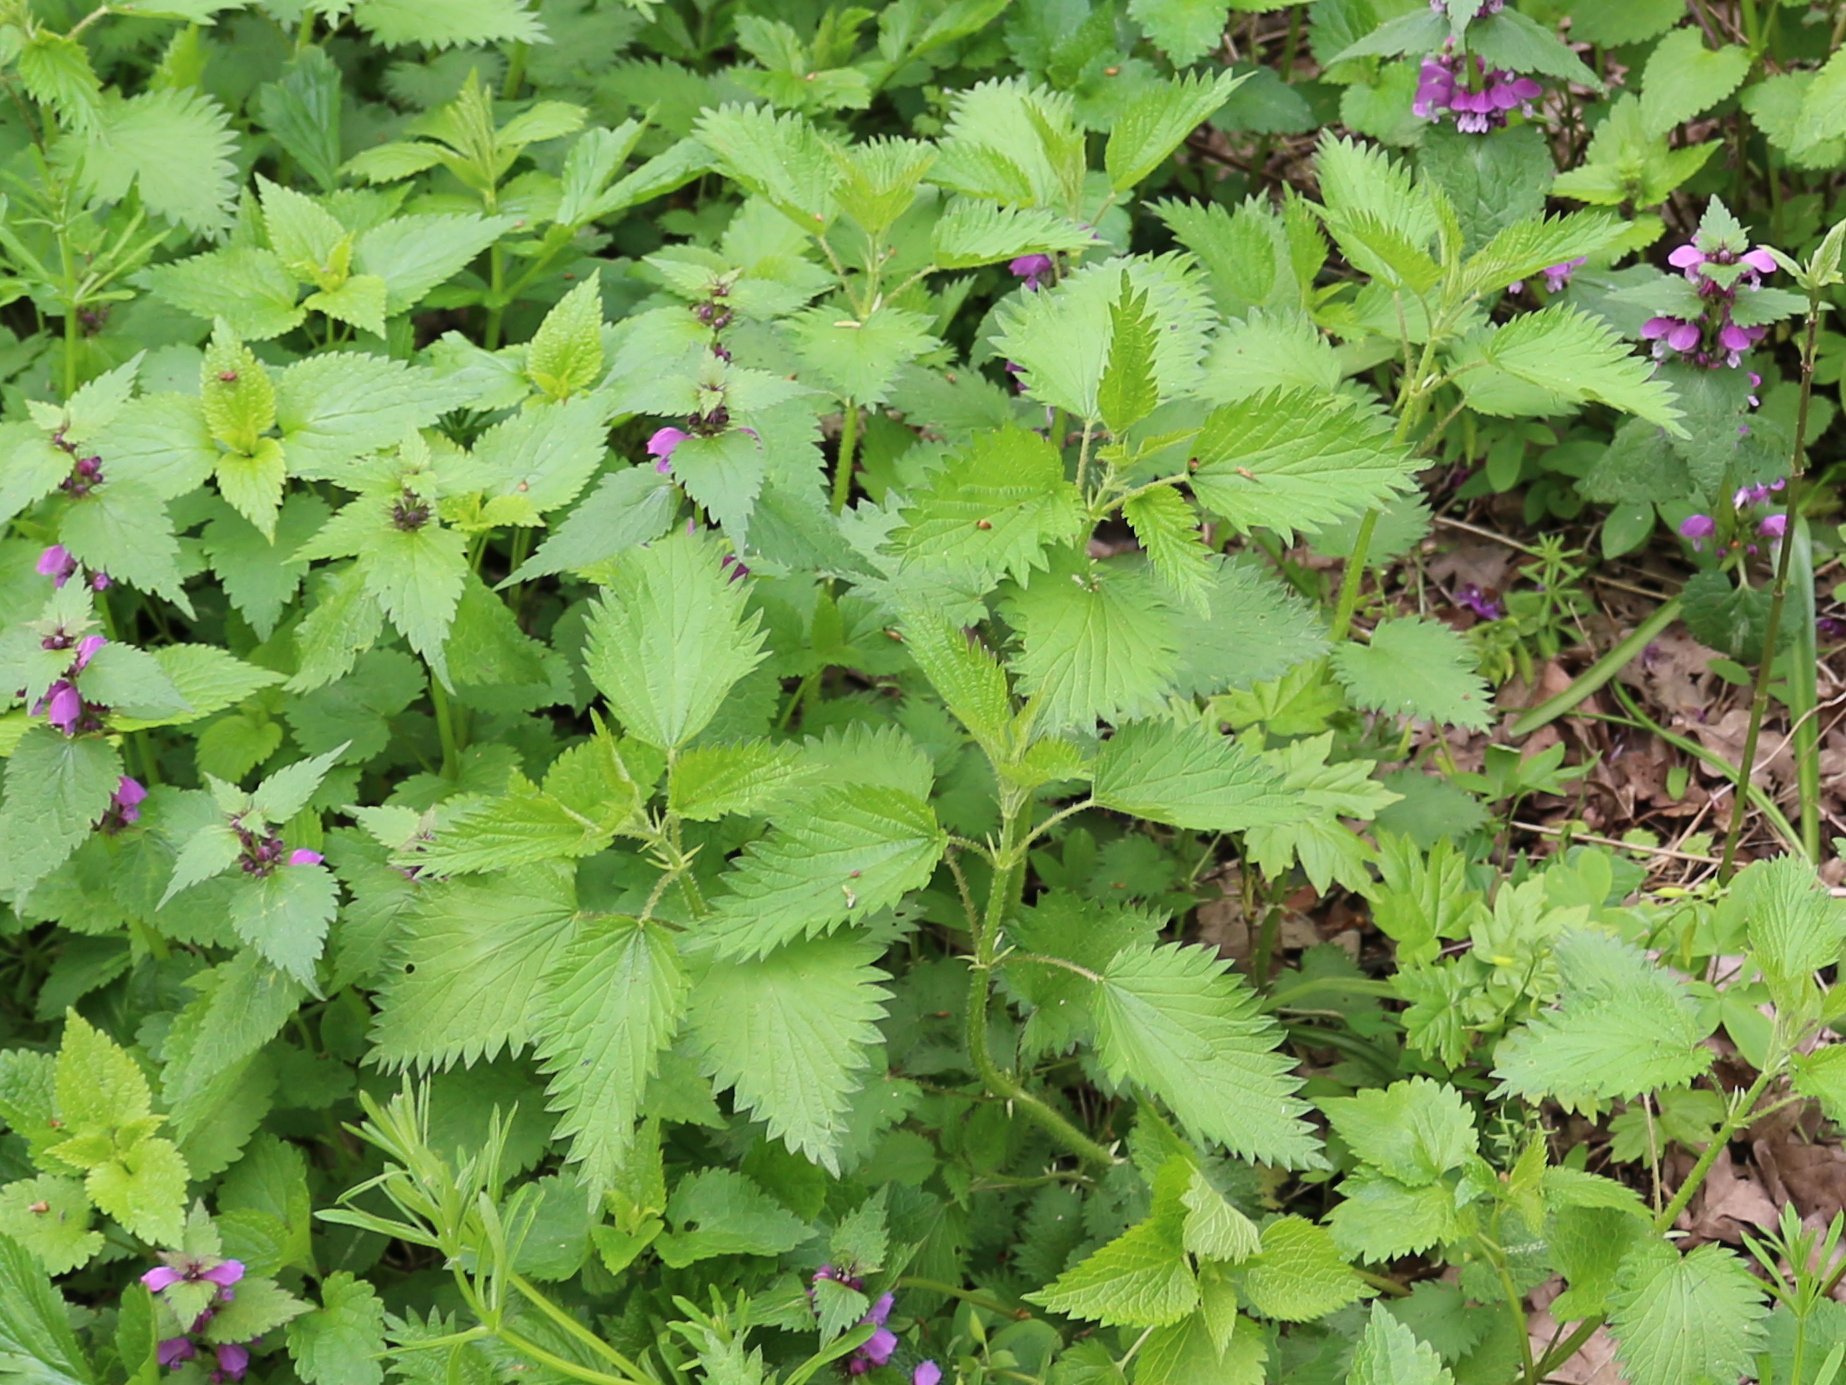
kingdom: Plantae
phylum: Tracheophyta
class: Magnoliopsida
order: Rosales
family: Urticaceae
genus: Urtica
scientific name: Urtica dioica
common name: Common nettle
